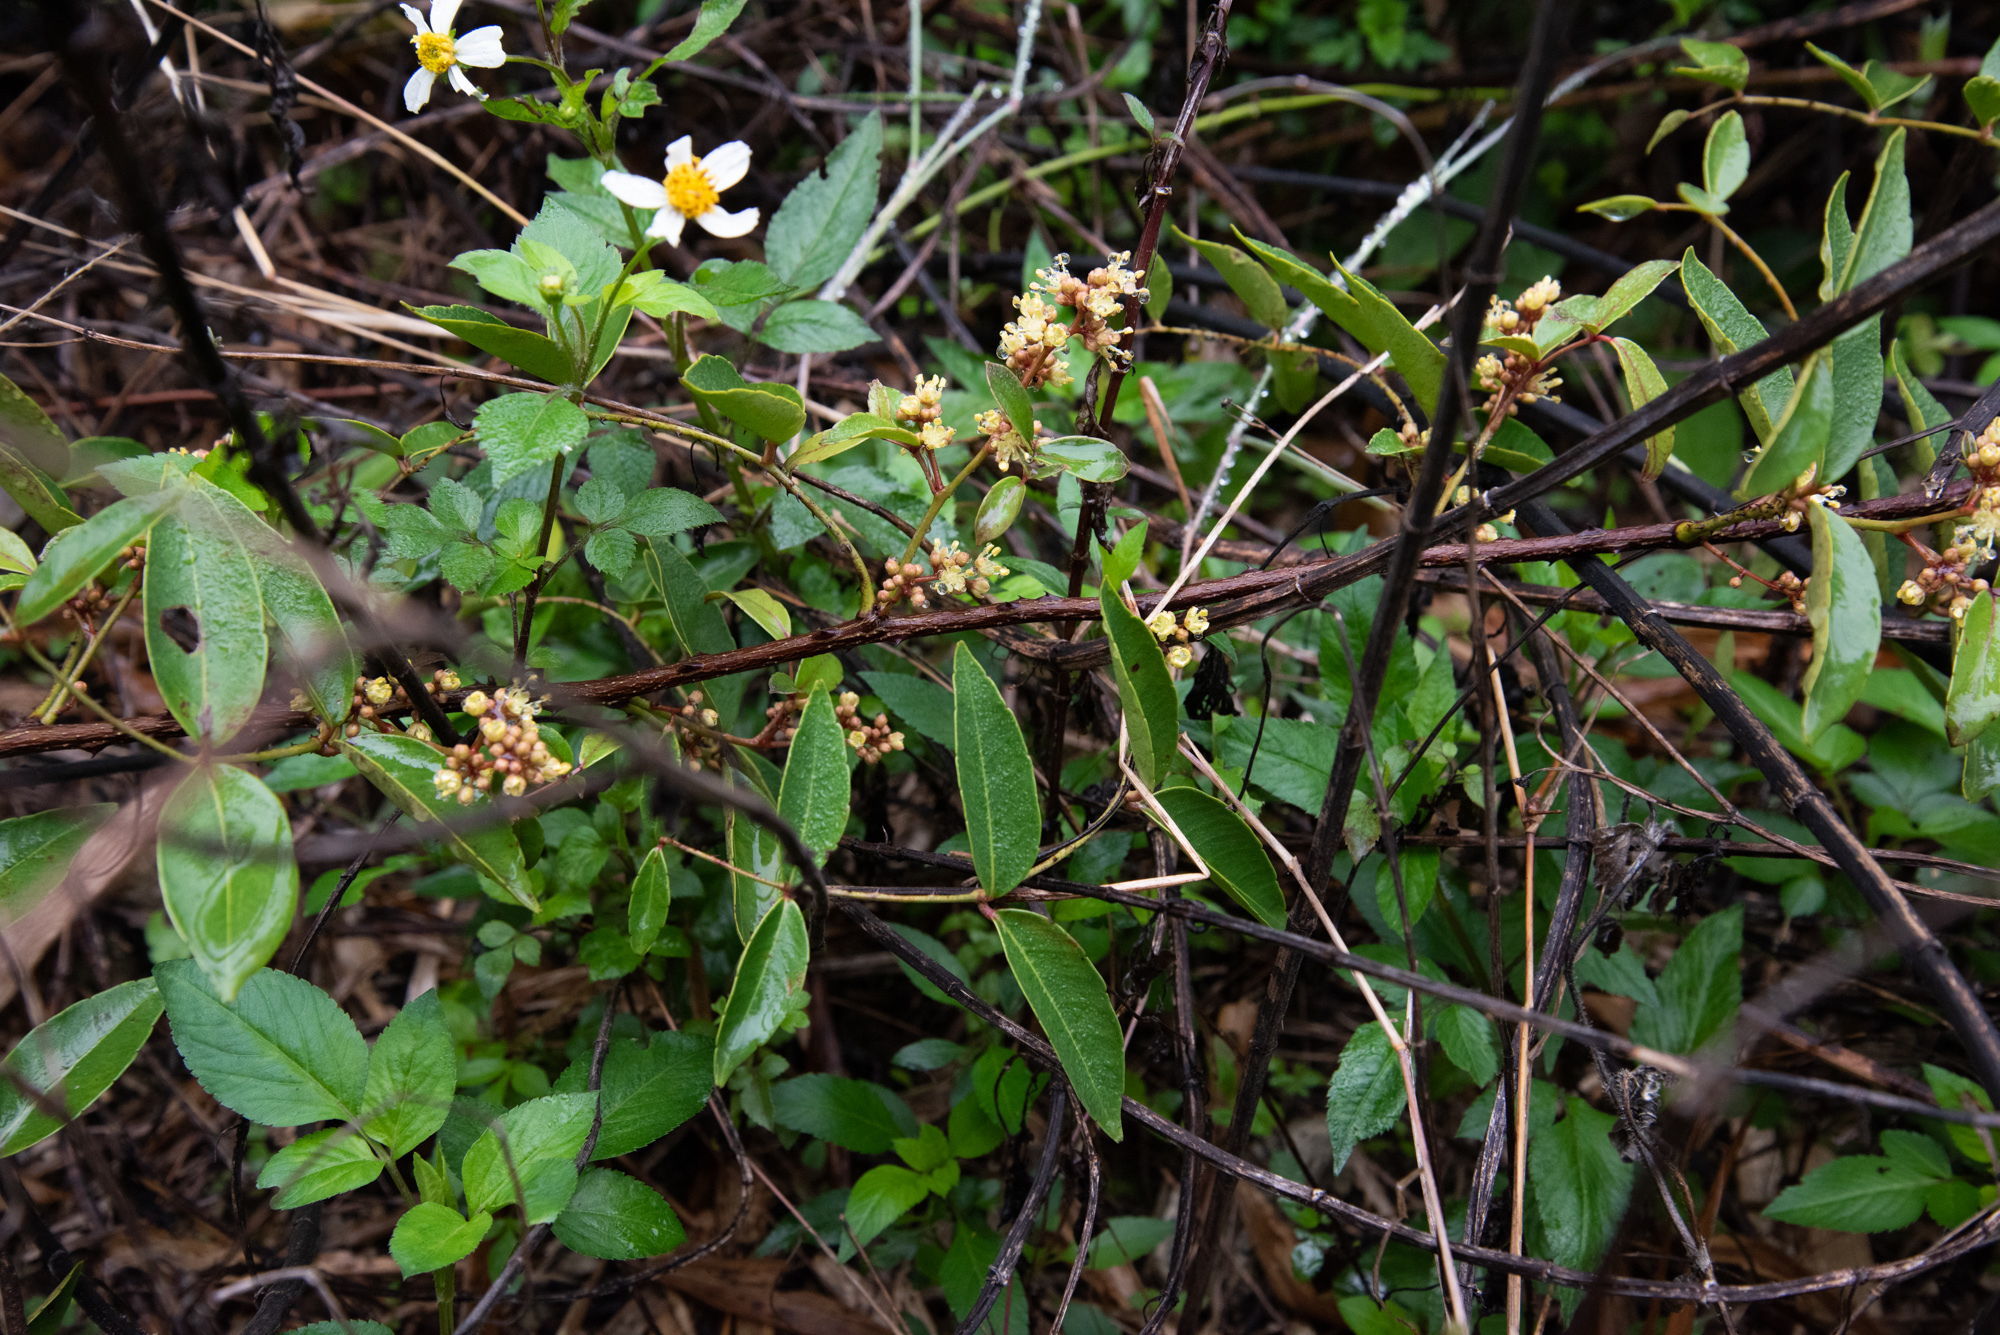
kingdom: Plantae
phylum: Tracheophyta
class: Magnoliopsida
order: Sapindales
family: Rutaceae
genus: Zanthoxylum
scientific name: Zanthoxylum nitidum
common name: Shiny-leaf prickly-ash
